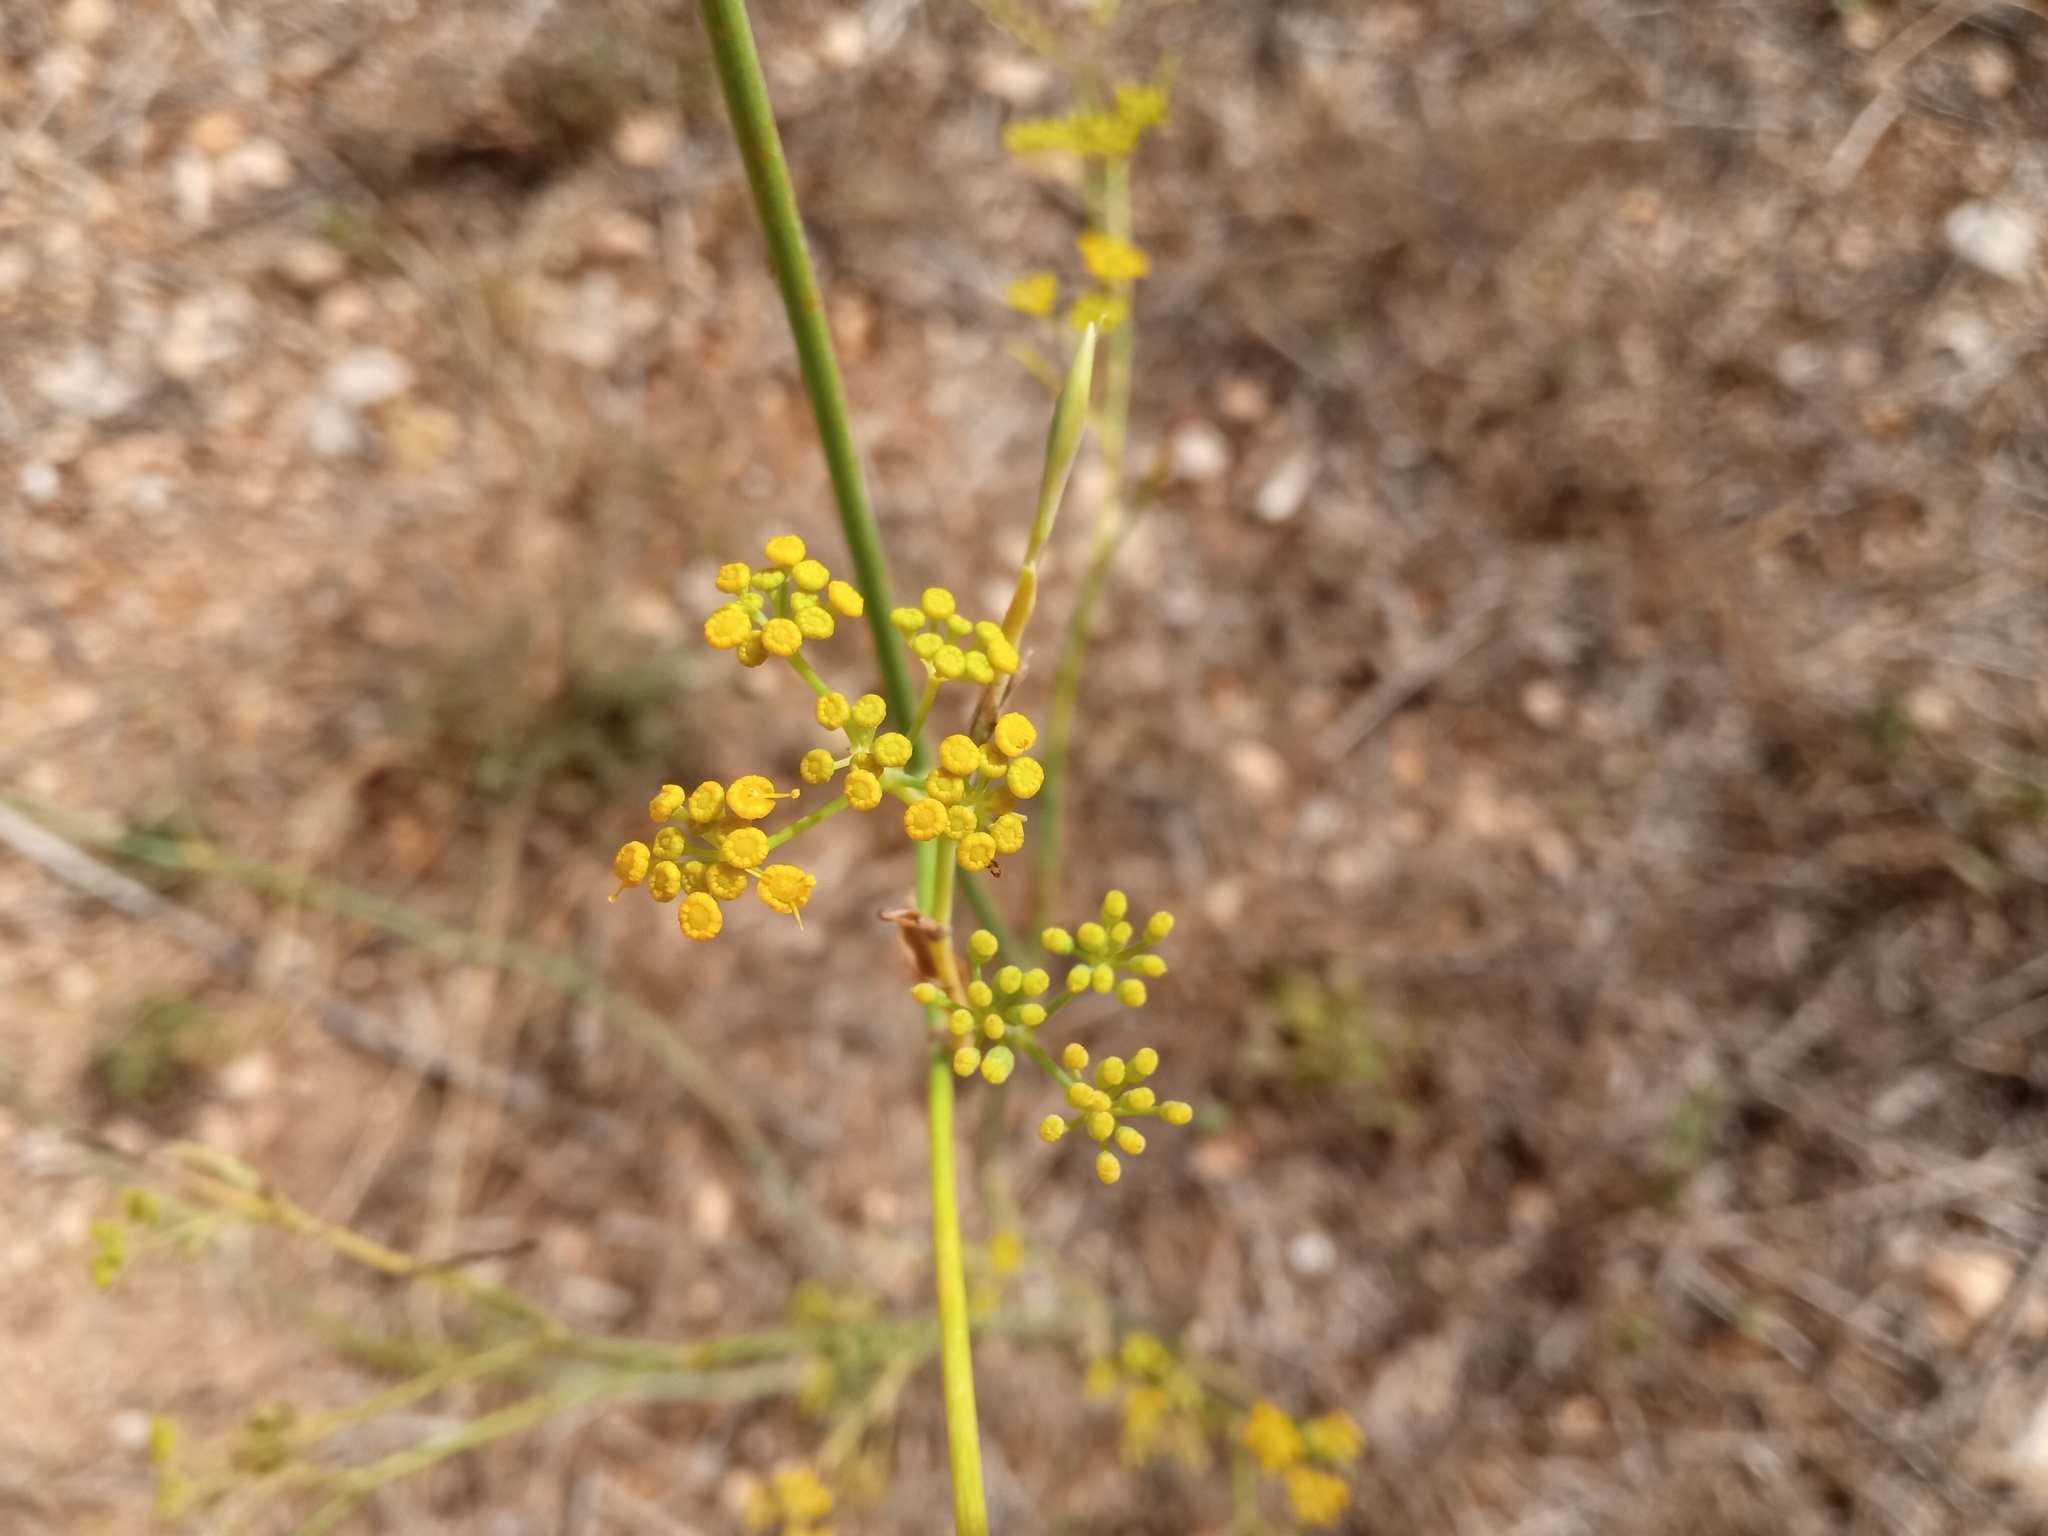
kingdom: Plantae
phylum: Tracheophyta
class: Magnoliopsida
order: Apiales
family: Apiaceae
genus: Foeniculum
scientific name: Foeniculum vulgare
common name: Fennel
